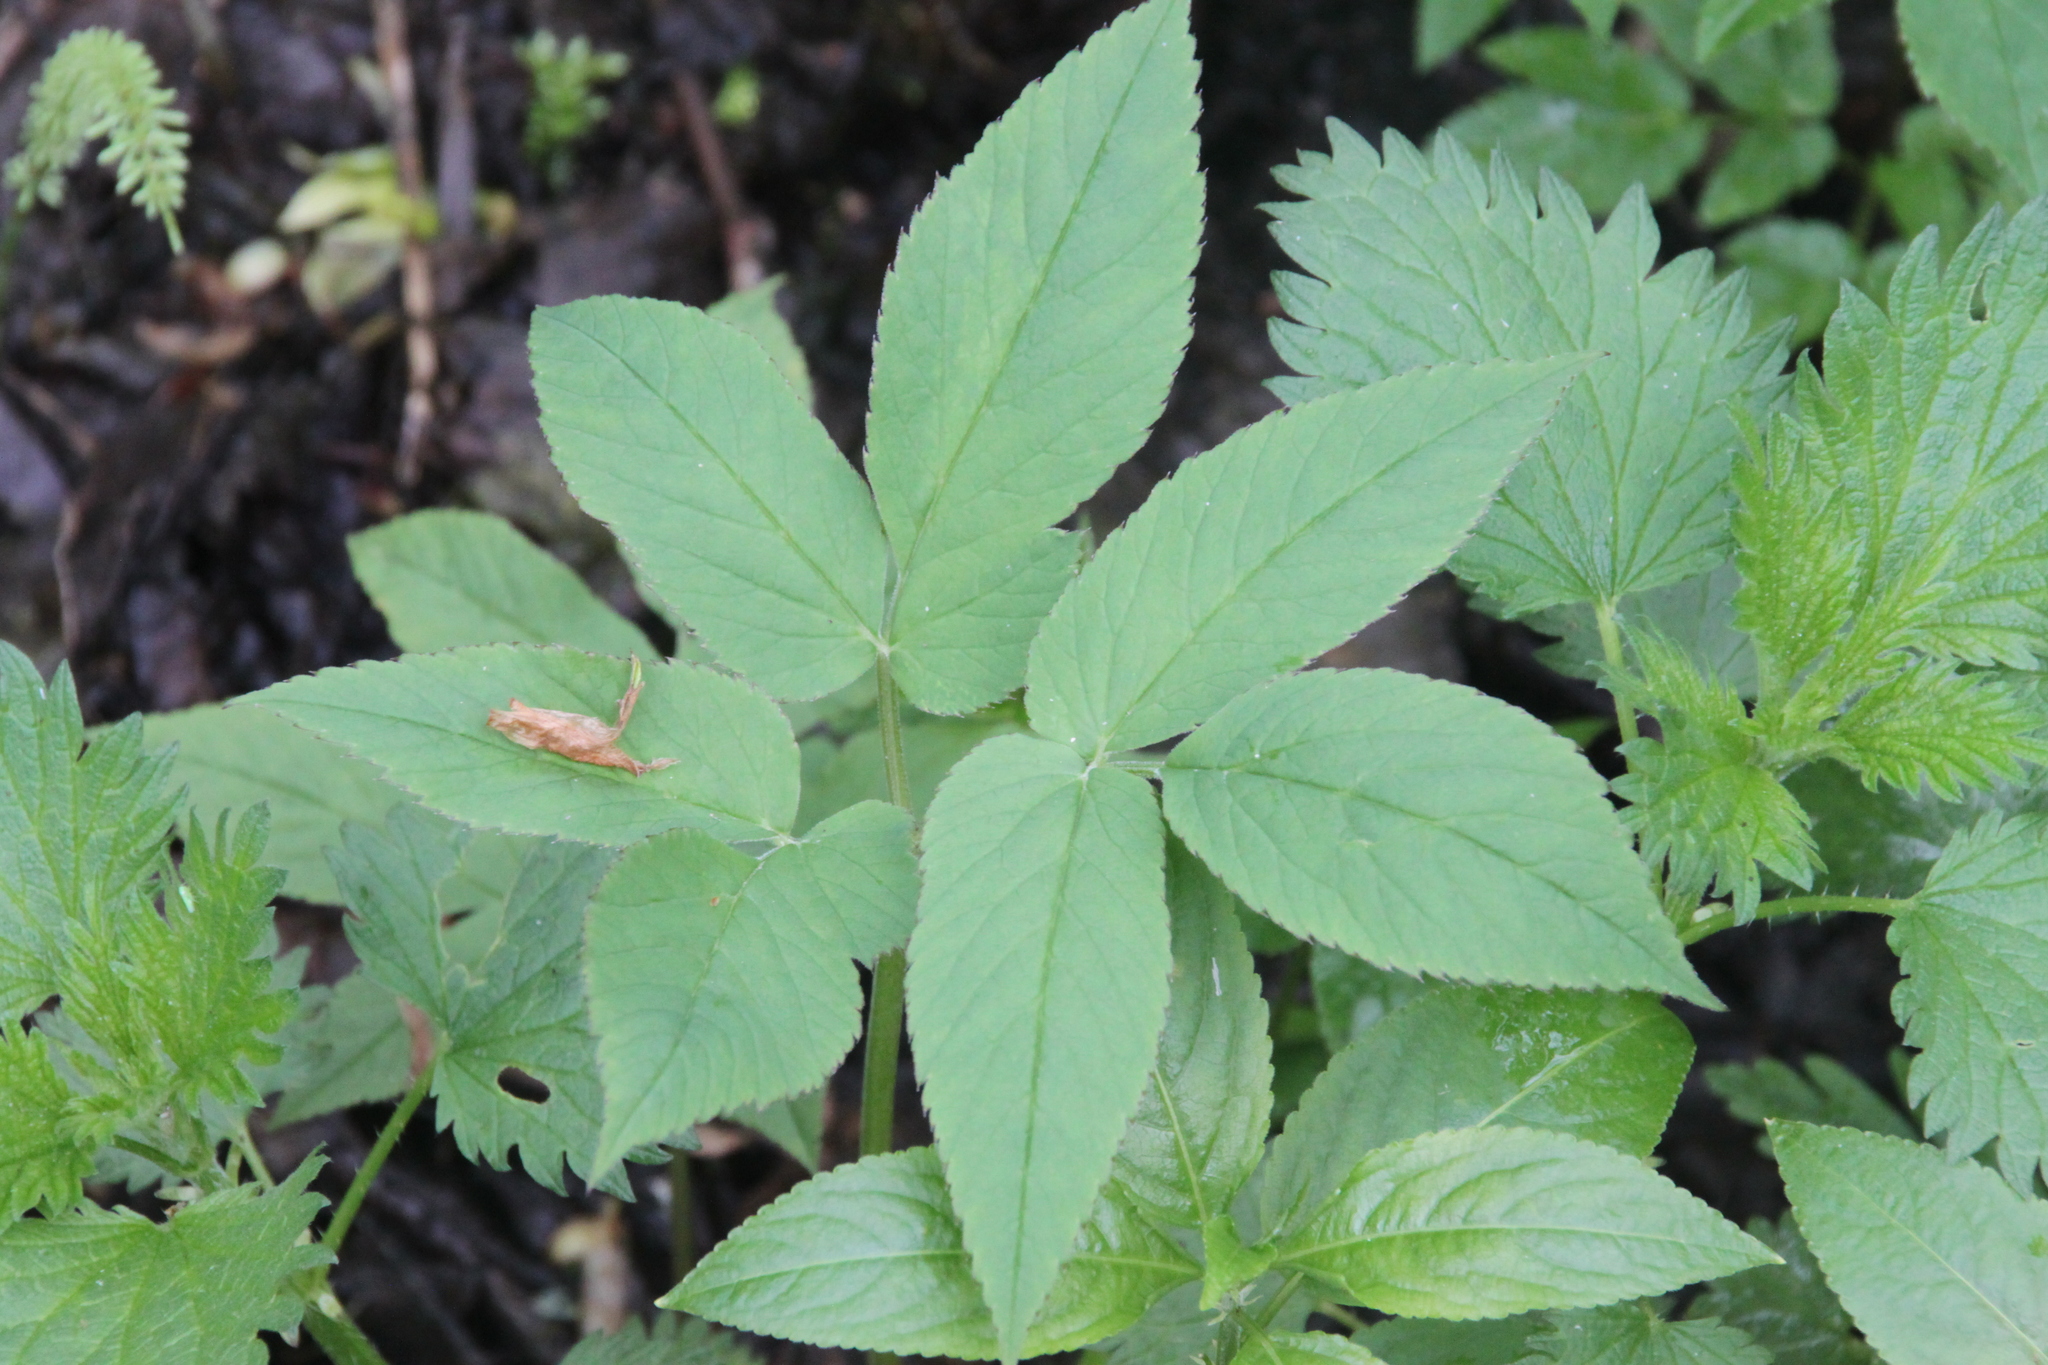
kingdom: Plantae
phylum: Tracheophyta
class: Magnoliopsida
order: Apiales
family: Apiaceae
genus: Aegopodium
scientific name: Aegopodium podagraria
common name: Ground-elder
